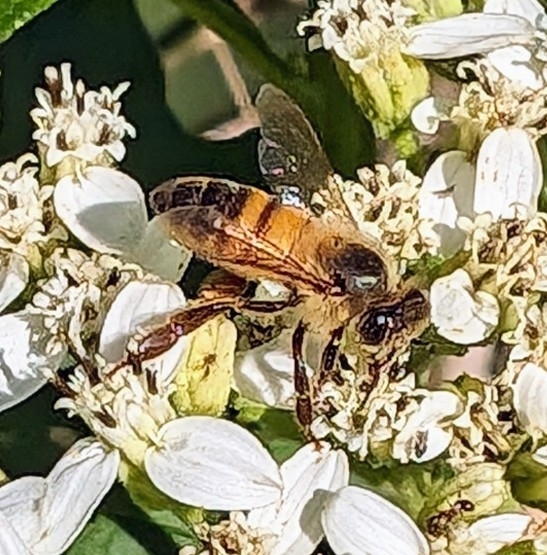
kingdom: Animalia
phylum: Arthropoda
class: Insecta
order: Hymenoptera
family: Apidae
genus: Apis
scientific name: Apis mellifera
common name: Honey bee
